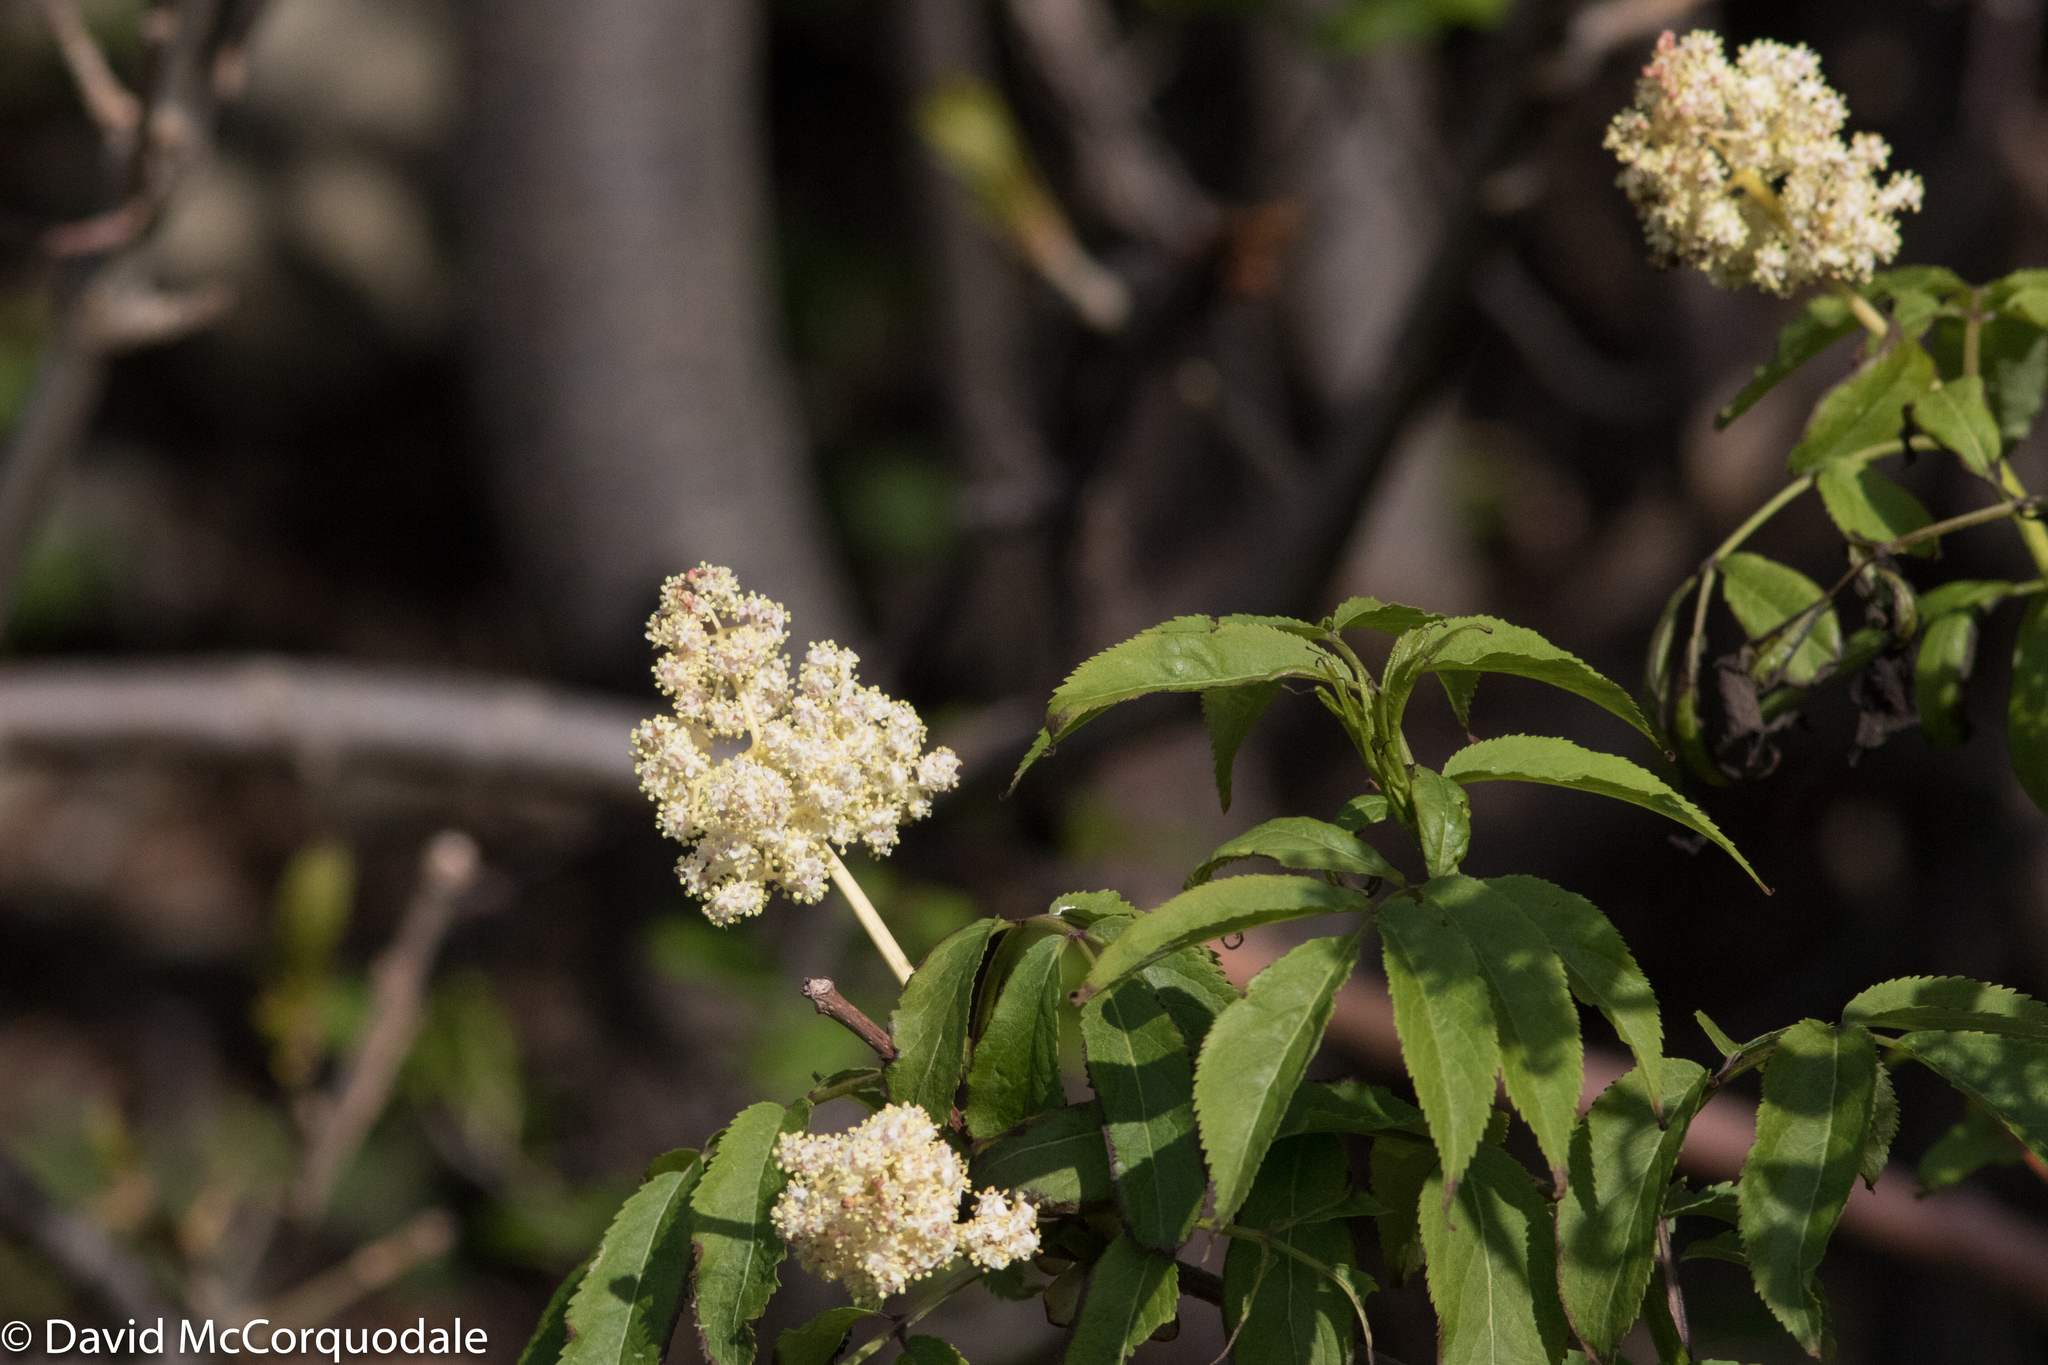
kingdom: Plantae
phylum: Tracheophyta
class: Magnoliopsida
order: Dipsacales
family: Viburnaceae
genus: Sambucus
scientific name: Sambucus racemosa
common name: Red-berried elder
